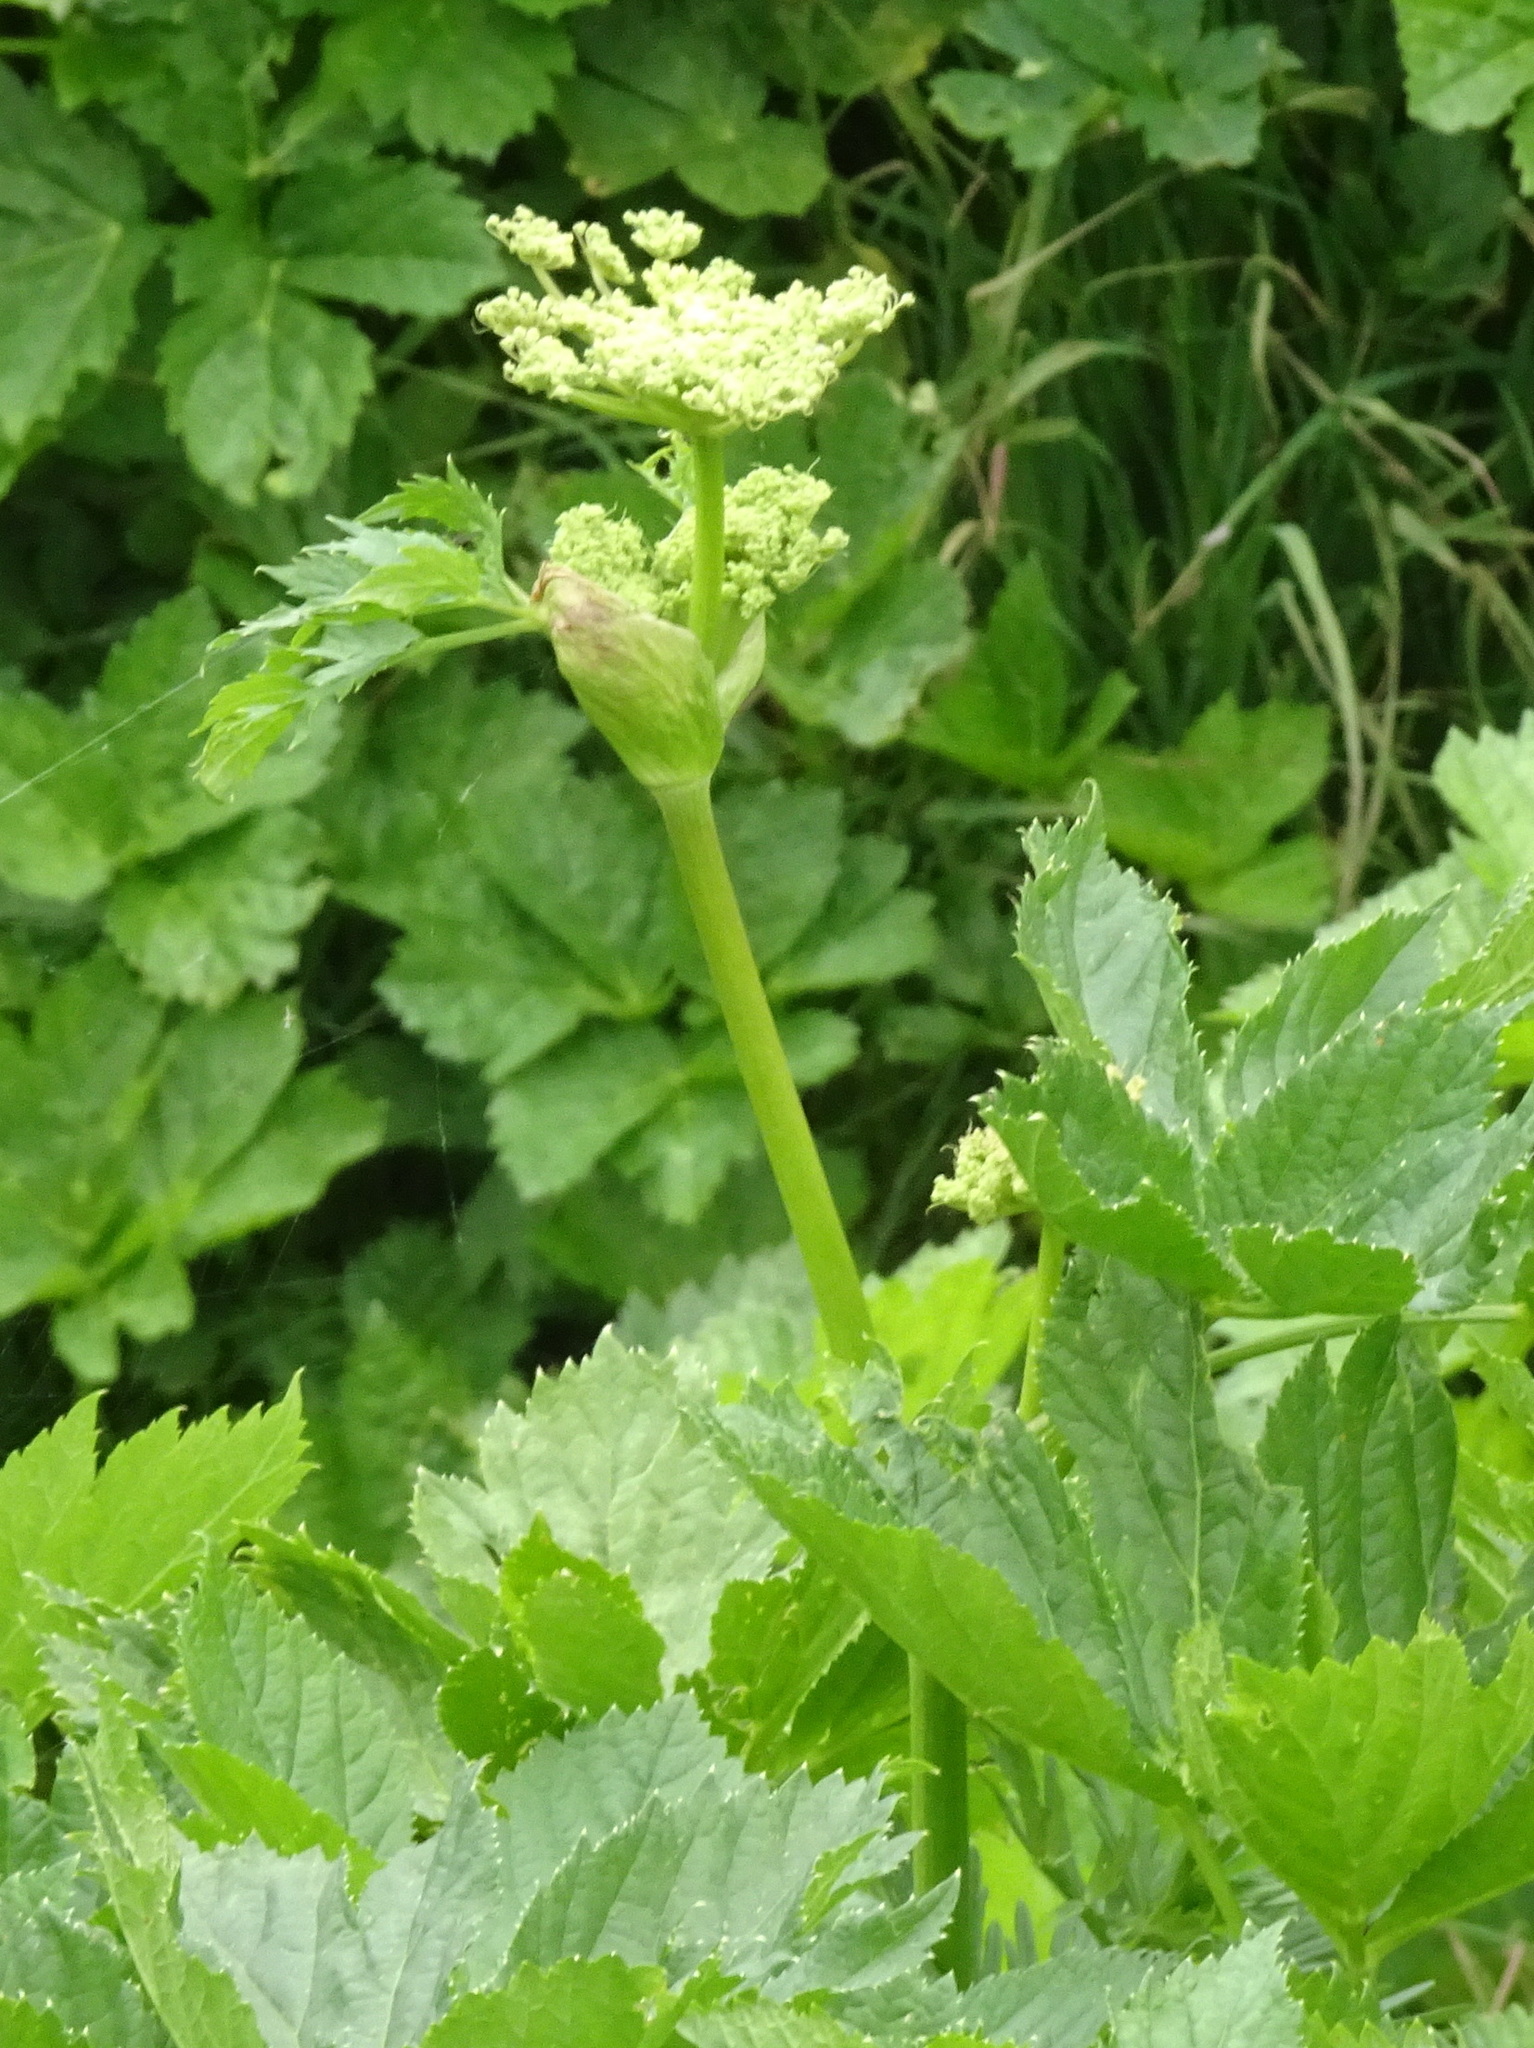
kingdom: Plantae
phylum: Tracheophyta
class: Magnoliopsida
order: Apiales
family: Apiaceae
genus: Imperatoria
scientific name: Imperatoria ostruthium
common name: Masterwort
